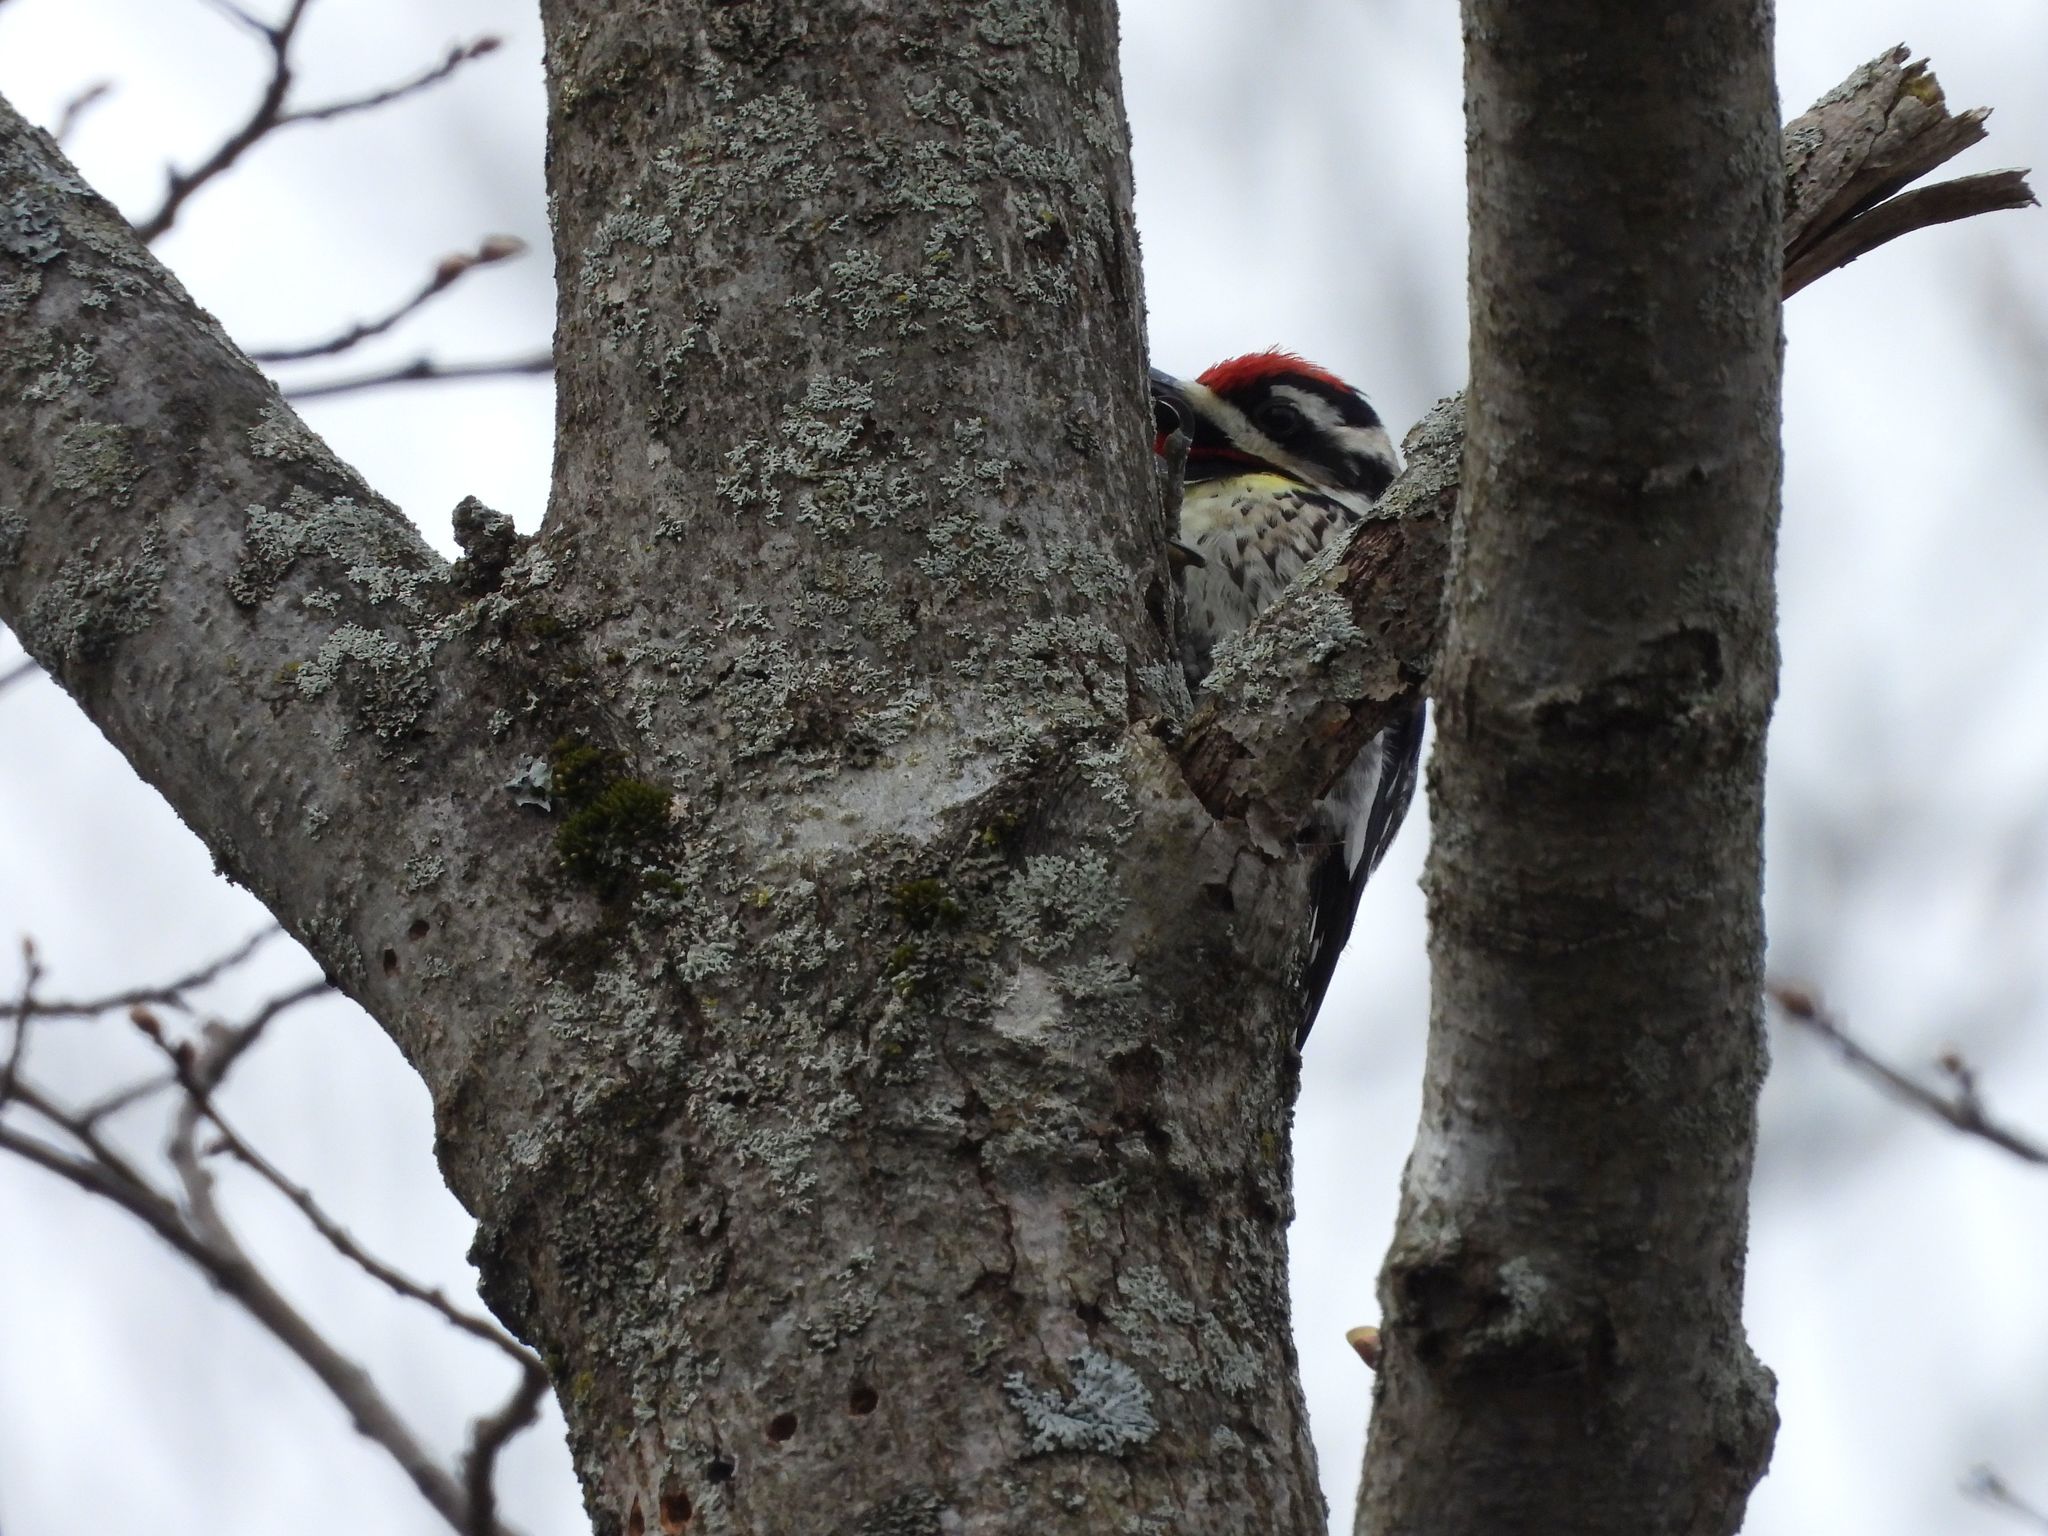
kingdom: Animalia
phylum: Chordata
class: Aves
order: Piciformes
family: Picidae
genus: Sphyrapicus
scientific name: Sphyrapicus varius
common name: Yellow-bellied sapsucker
